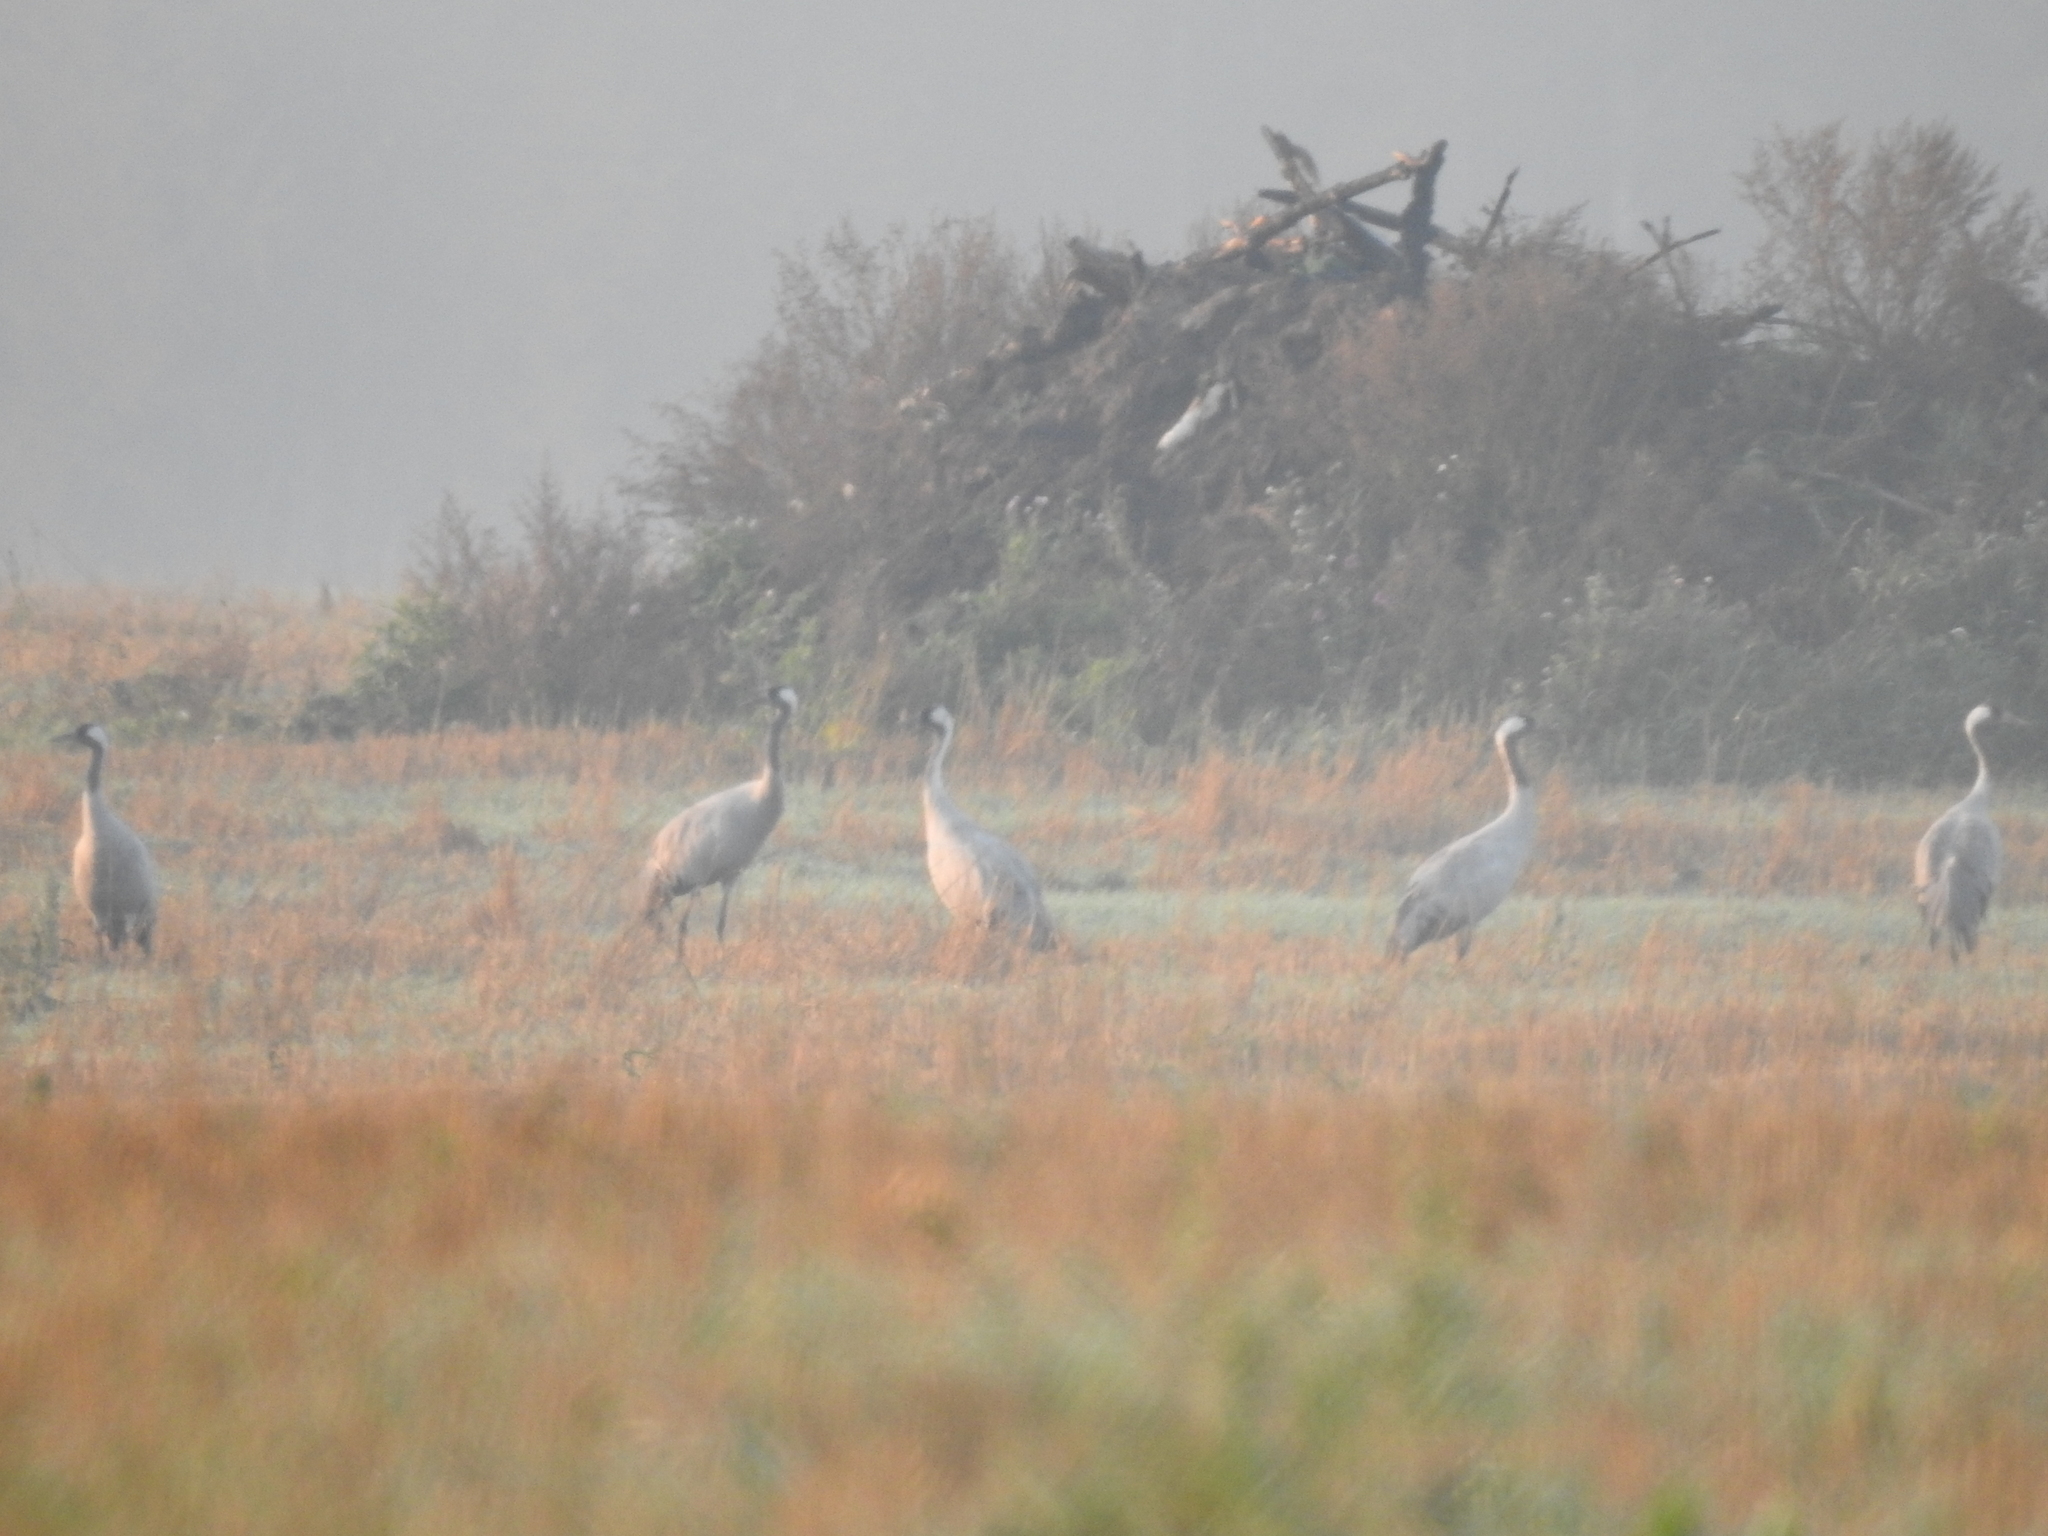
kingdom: Animalia
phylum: Chordata
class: Aves
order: Gruiformes
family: Gruidae
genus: Grus
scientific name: Grus grus
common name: Common crane
